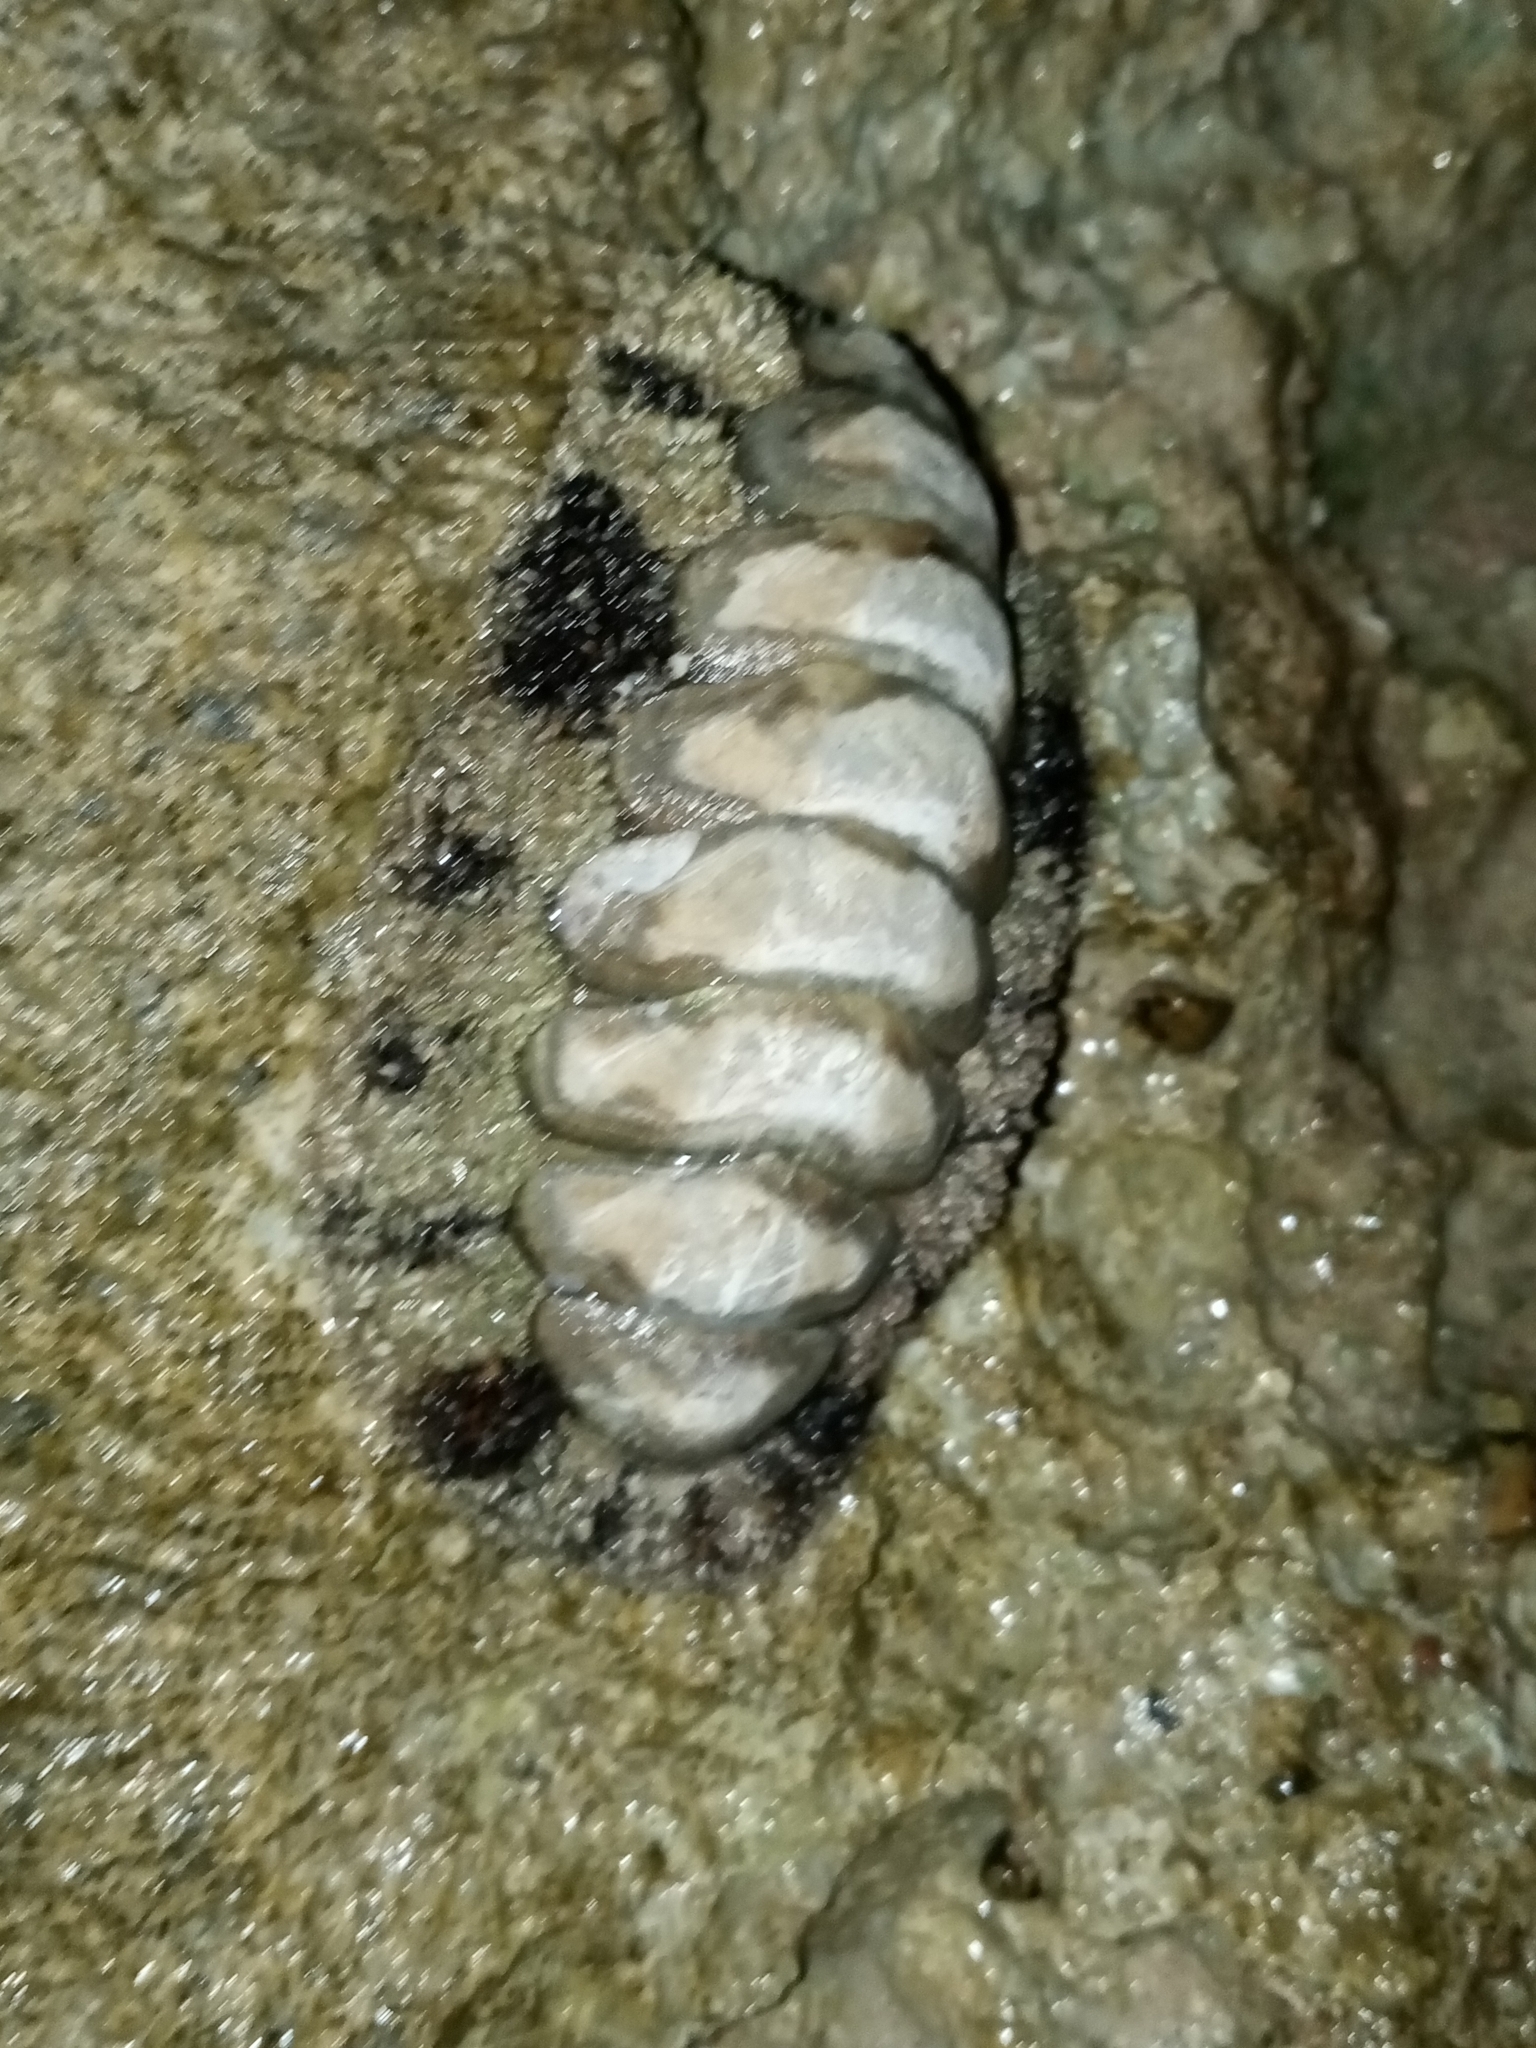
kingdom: Animalia
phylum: Mollusca
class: Polyplacophora
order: Chitonida
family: Chitonidae
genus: Acanthopleura
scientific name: Acanthopleura vaillantii
